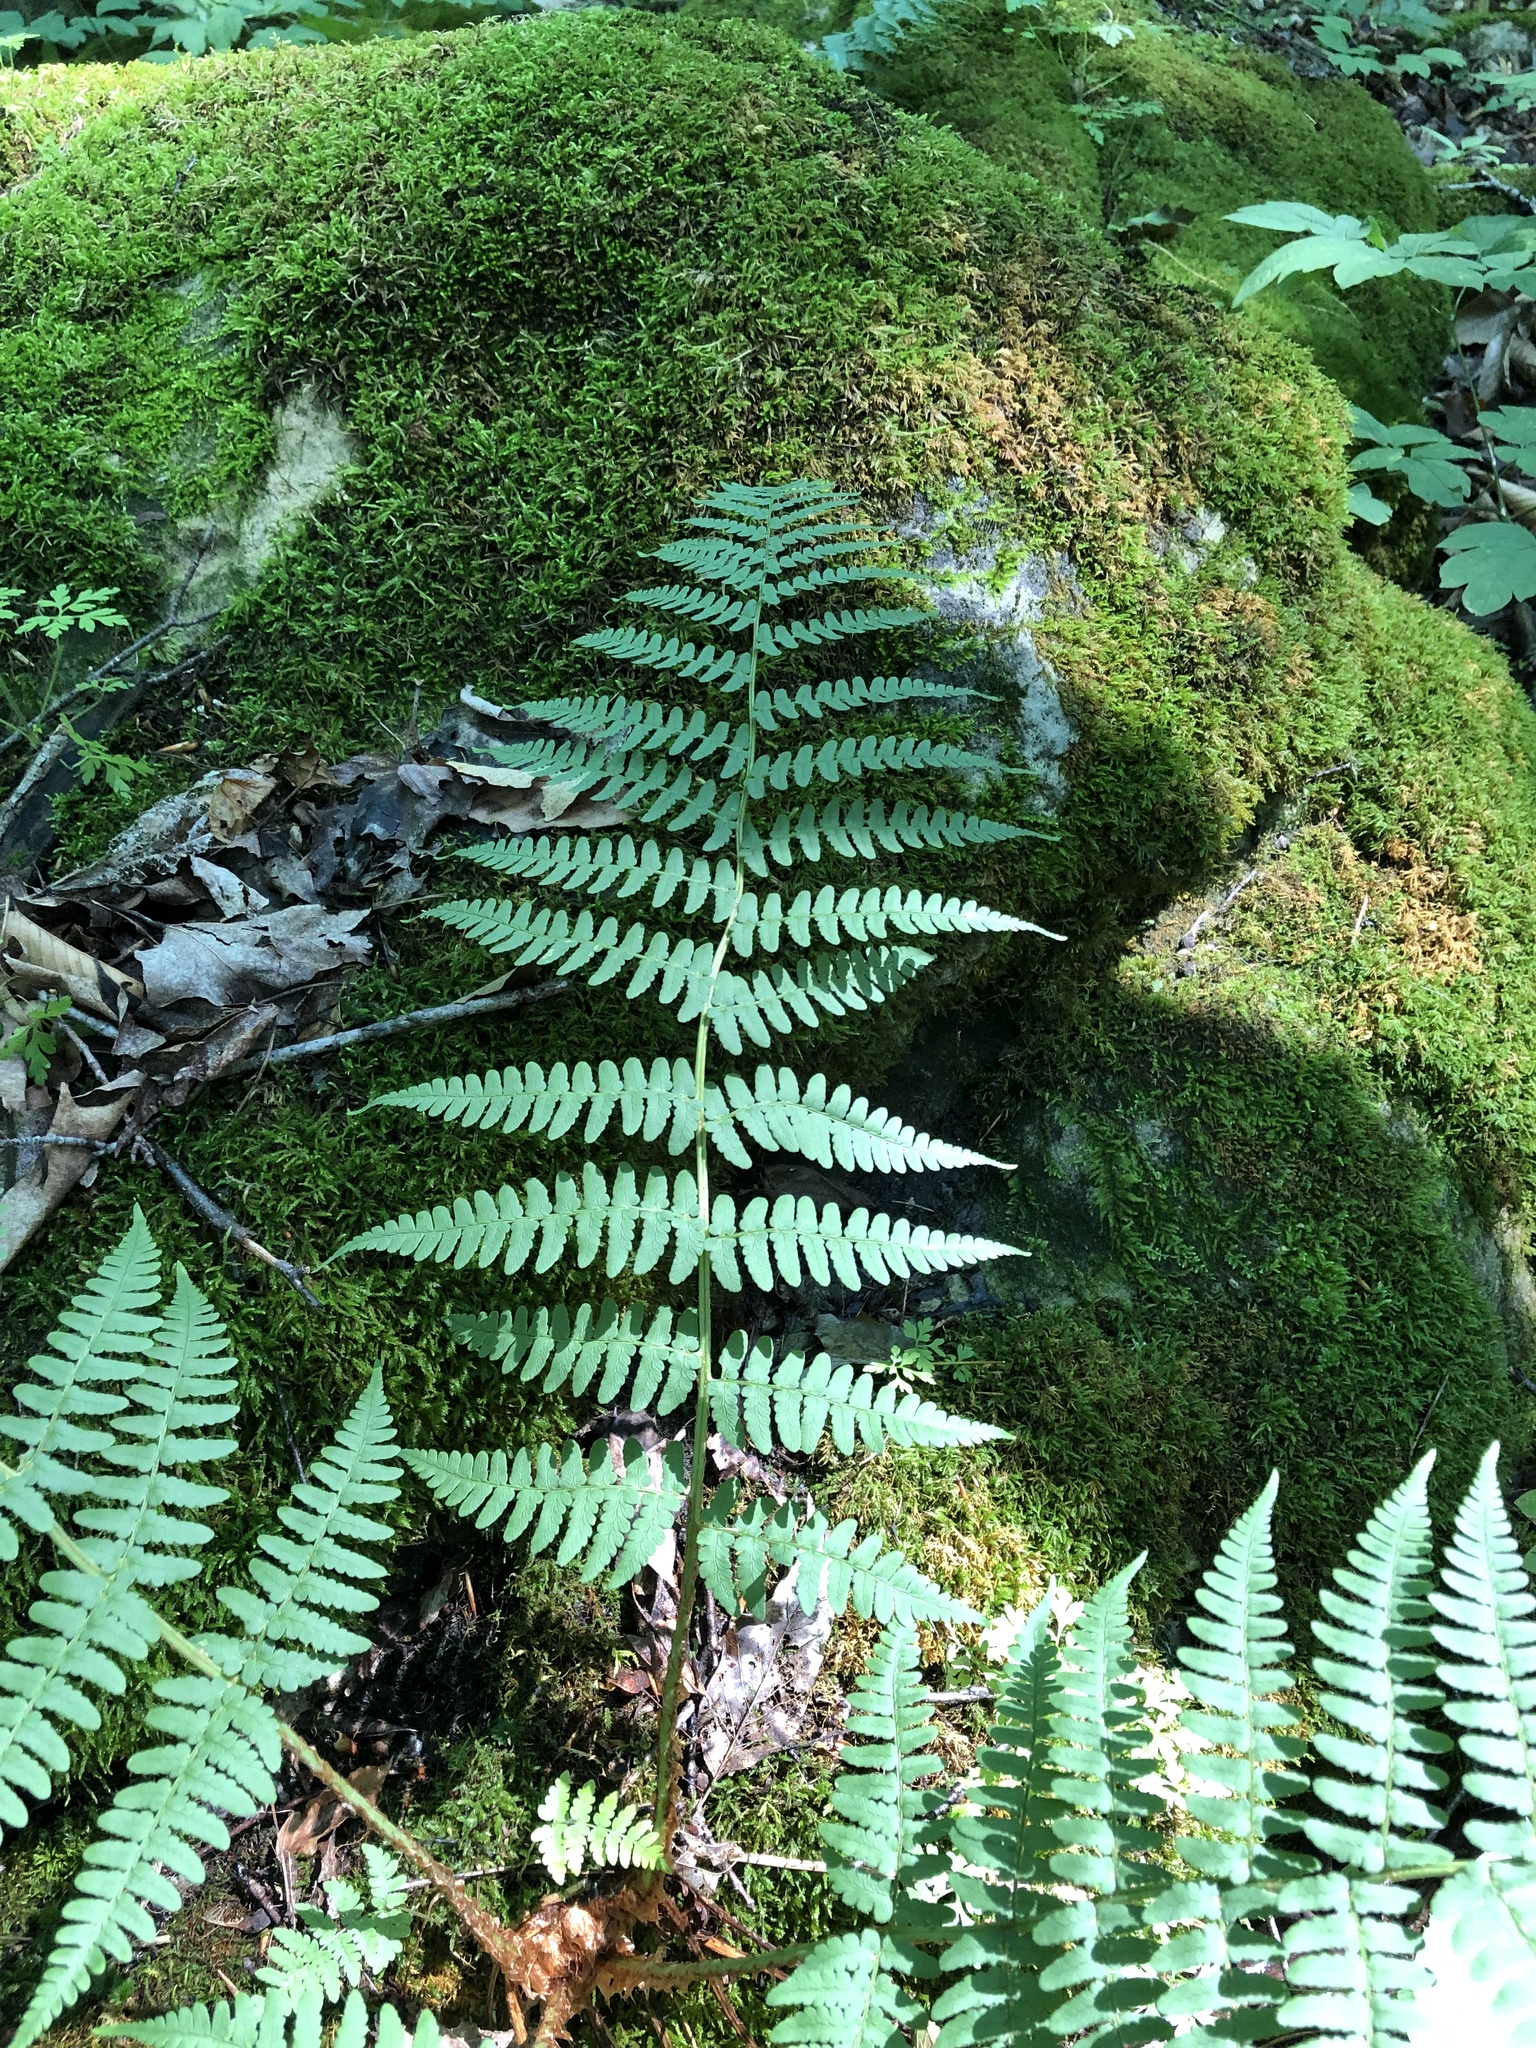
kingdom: Plantae
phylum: Tracheophyta
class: Polypodiopsida
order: Polypodiales
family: Dryopteridaceae
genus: Dryopteris
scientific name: Dryopteris marginalis
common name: Marginal wood fern
